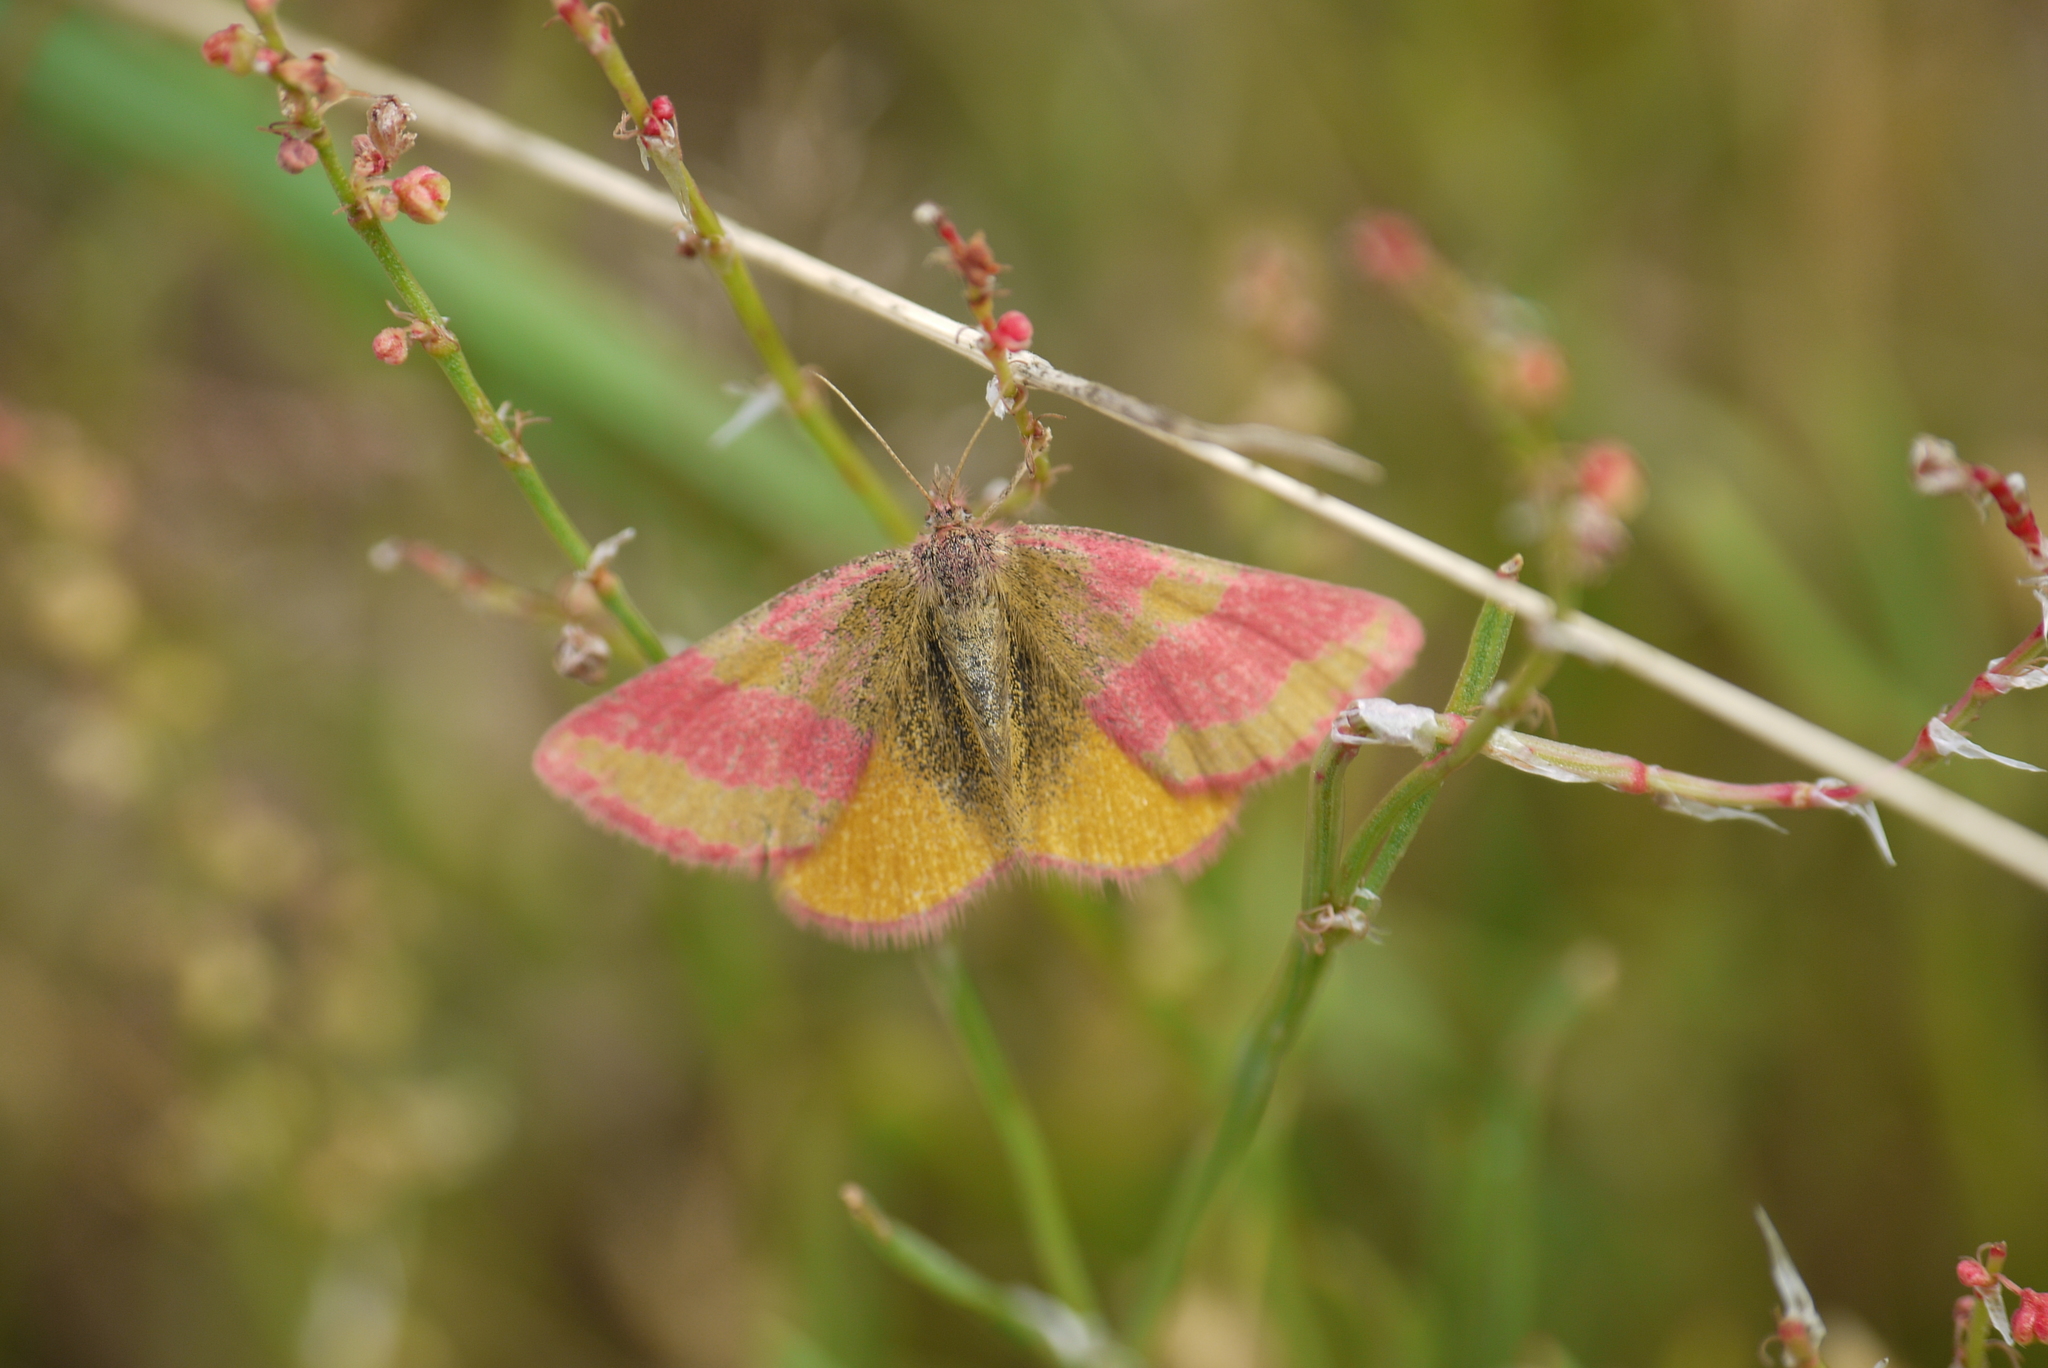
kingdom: Animalia
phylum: Arthropoda
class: Insecta
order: Lepidoptera
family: Geometridae
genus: Lythria
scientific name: Lythria cruentaria
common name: Purple-barred yellow
